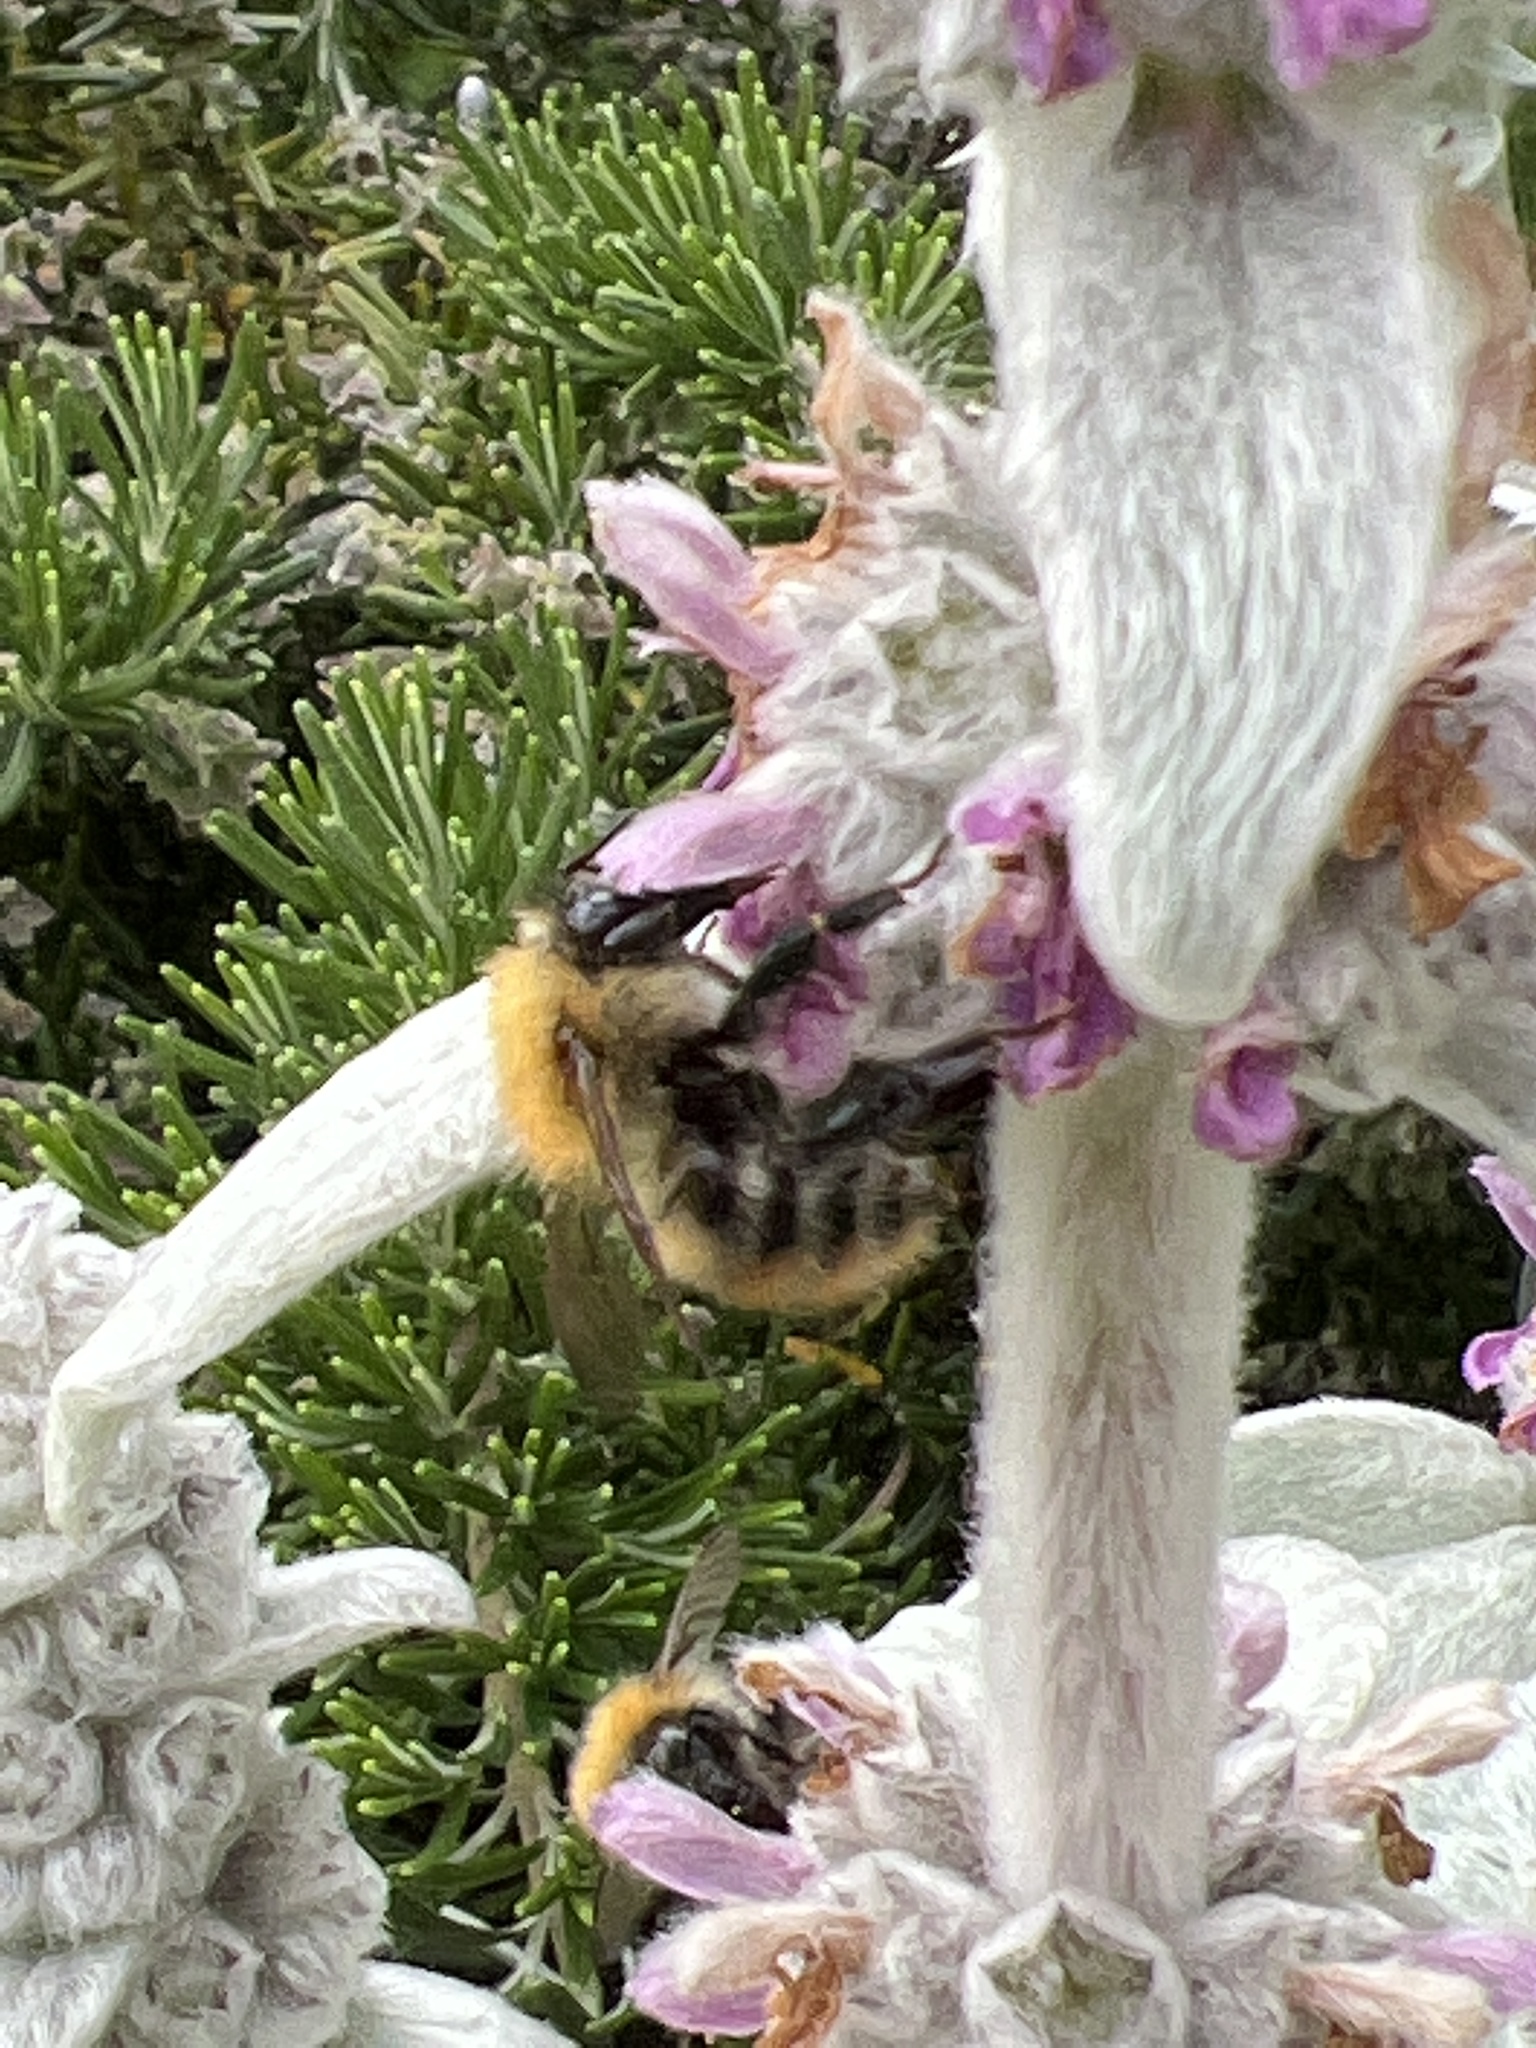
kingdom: Animalia
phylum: Arthropoda
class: Insecta
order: Hymenoptera
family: Apidae
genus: Bombus
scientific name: Bombus pascuorum
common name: Common carder bee
